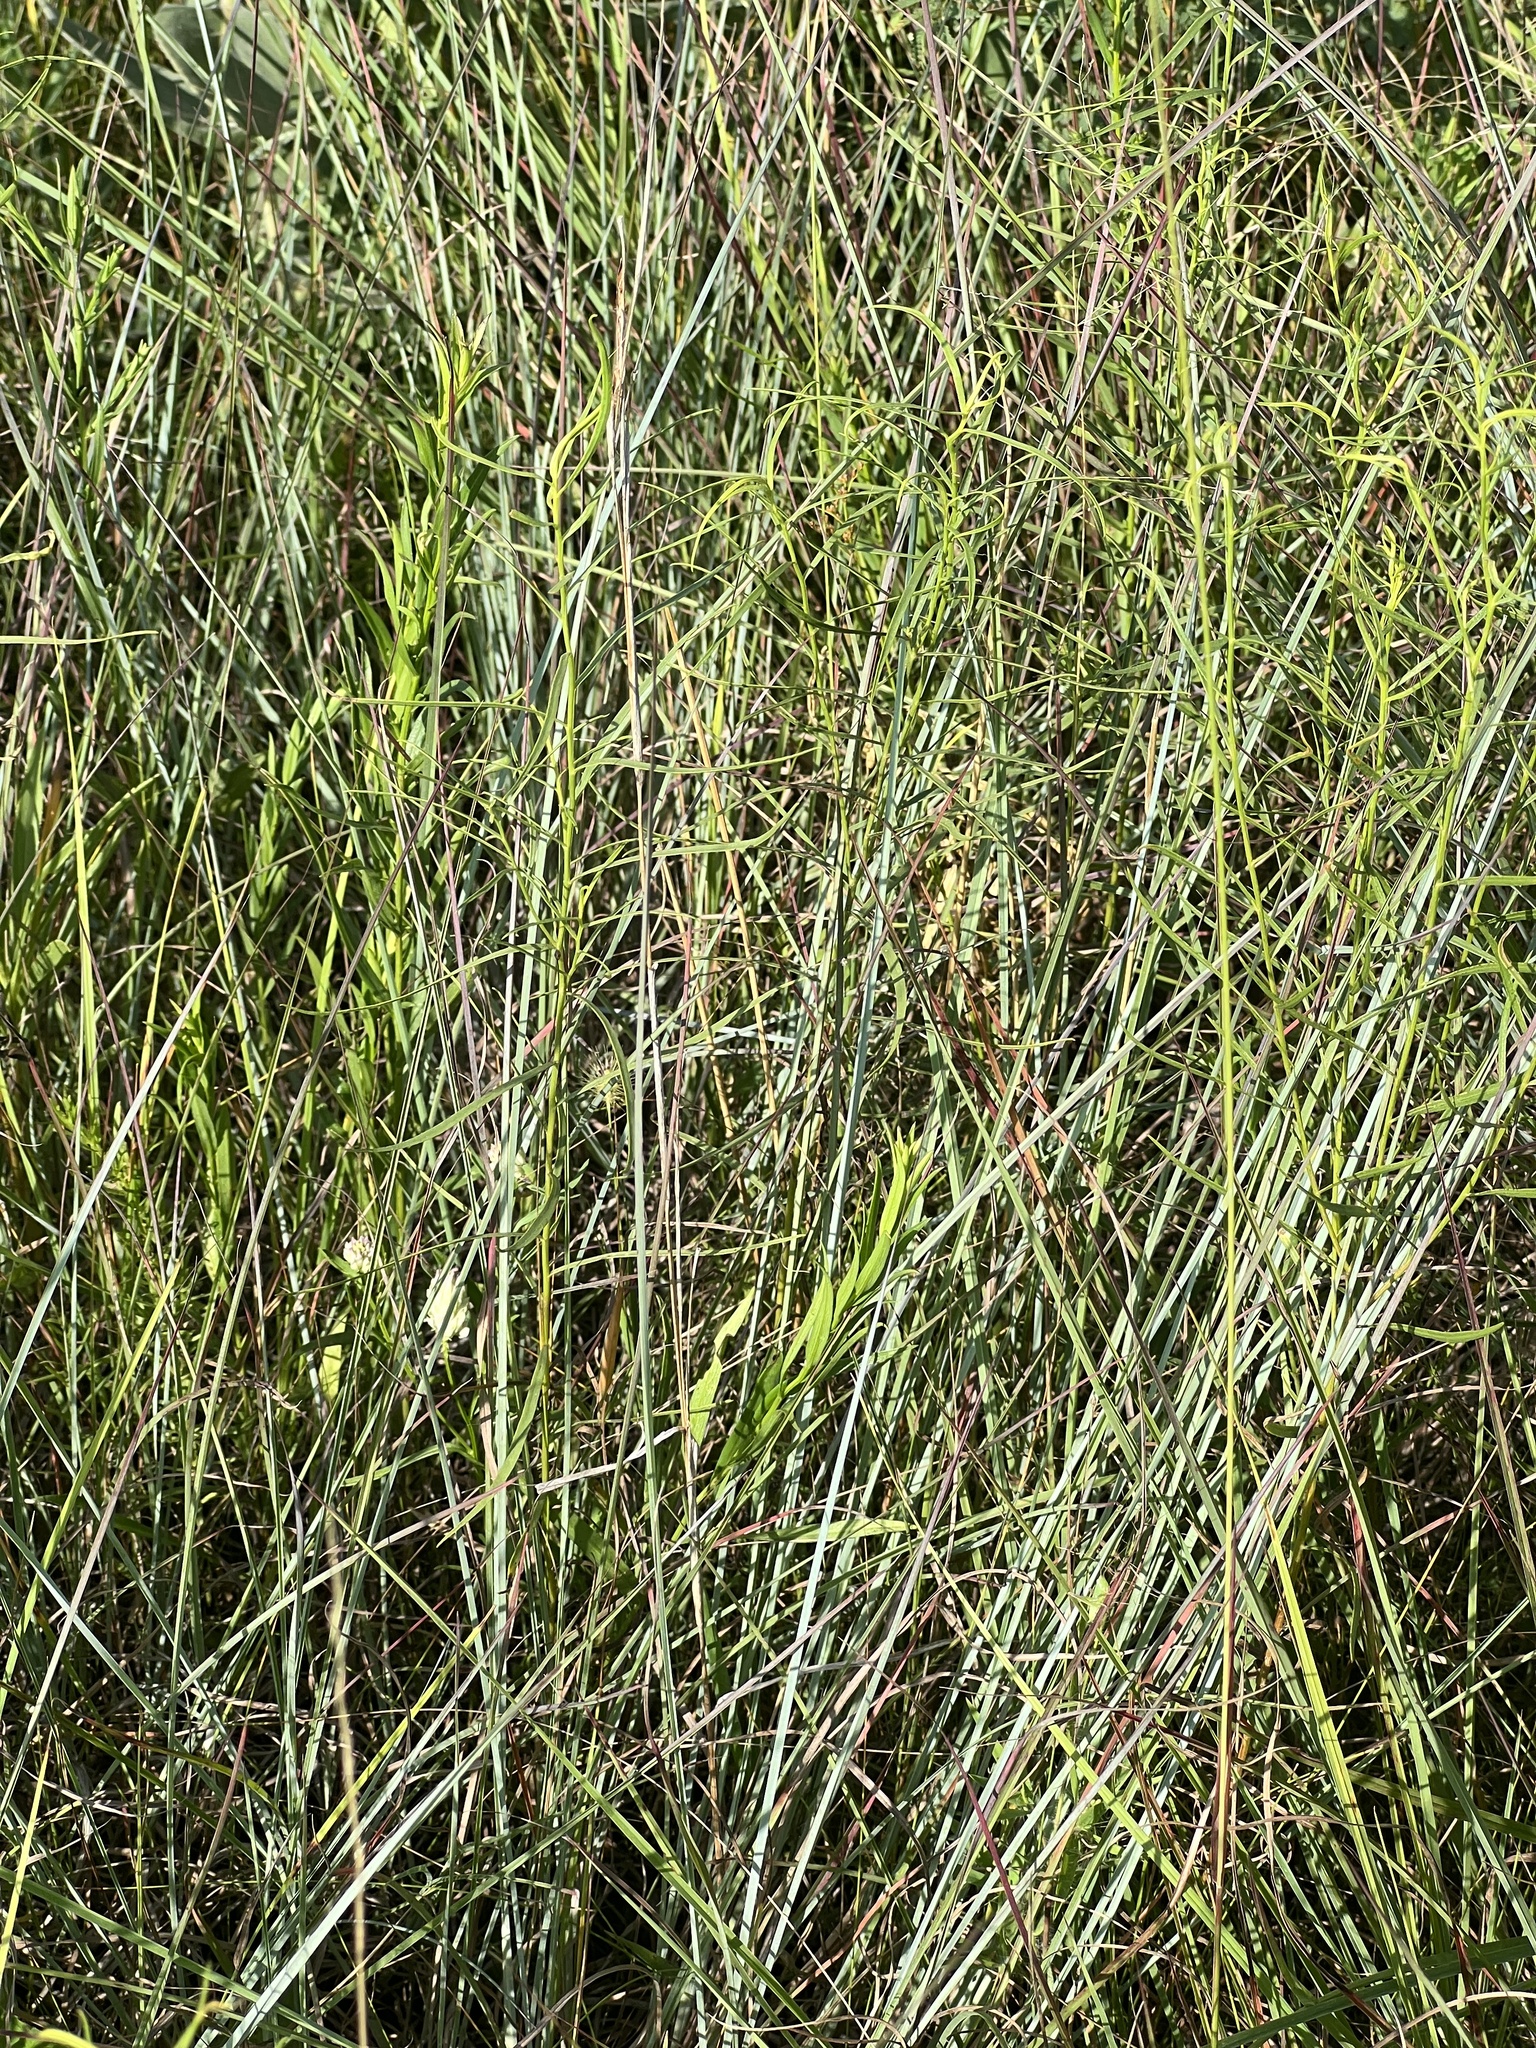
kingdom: Plantae
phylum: Tracheophyta
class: Liliopsida
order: Poales
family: Poaceae
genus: Schizachyrium
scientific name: Schizachyrium scoparium
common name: Little bluestem
